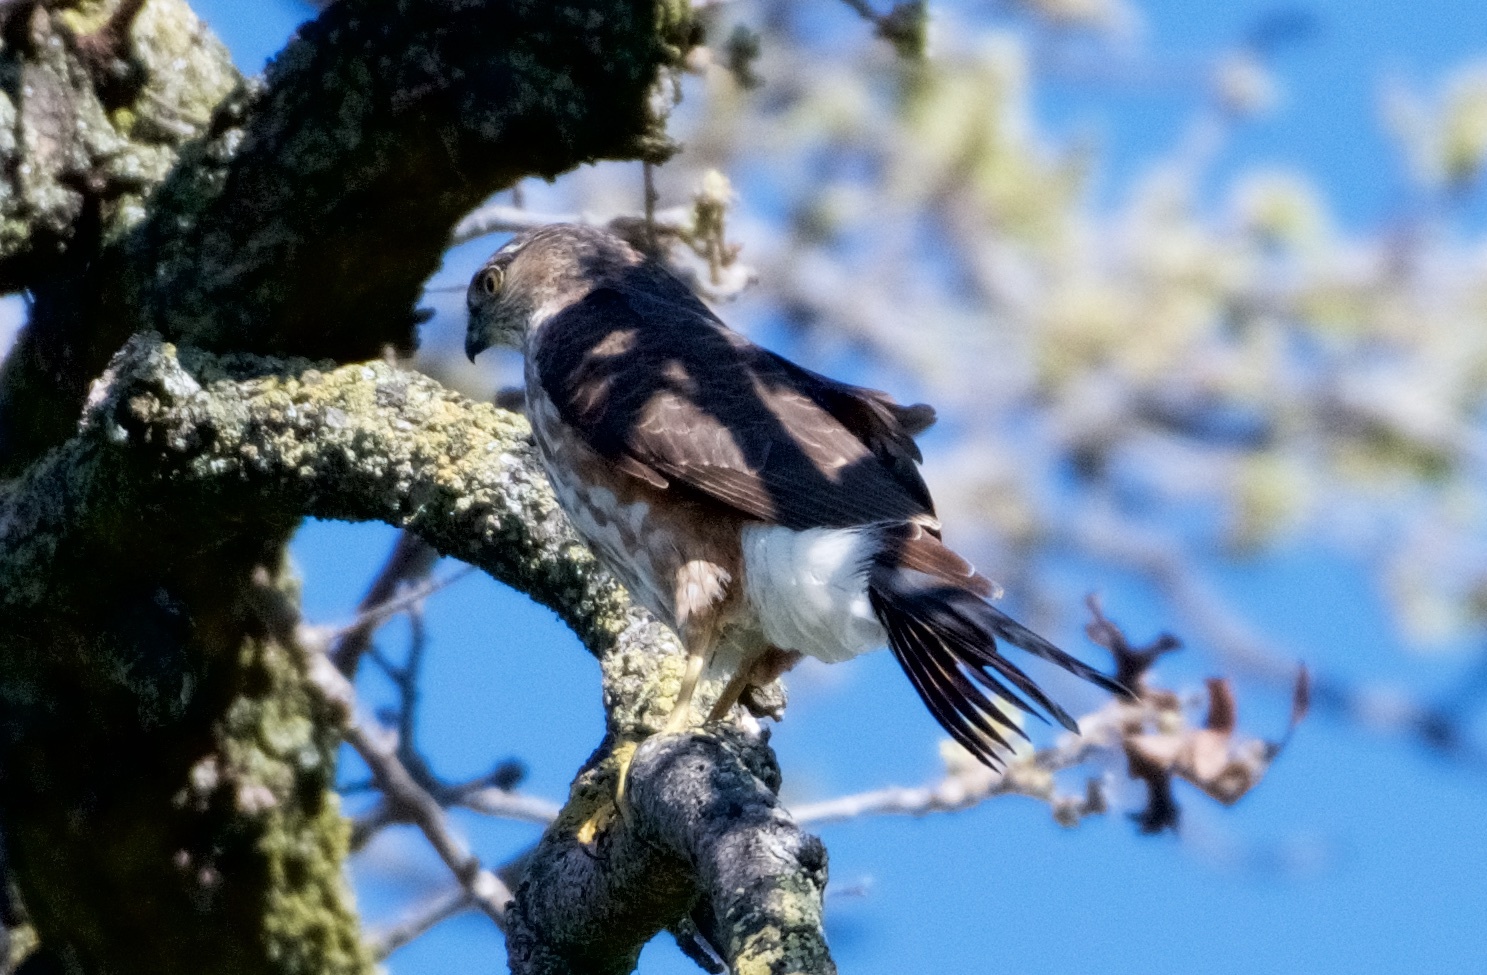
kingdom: Animalia
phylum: Chordata
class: Aves
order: Accipitriformes
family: Accipitridae
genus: Accipiter
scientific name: Accipiter striatus
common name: Sharp-shinned hawk
